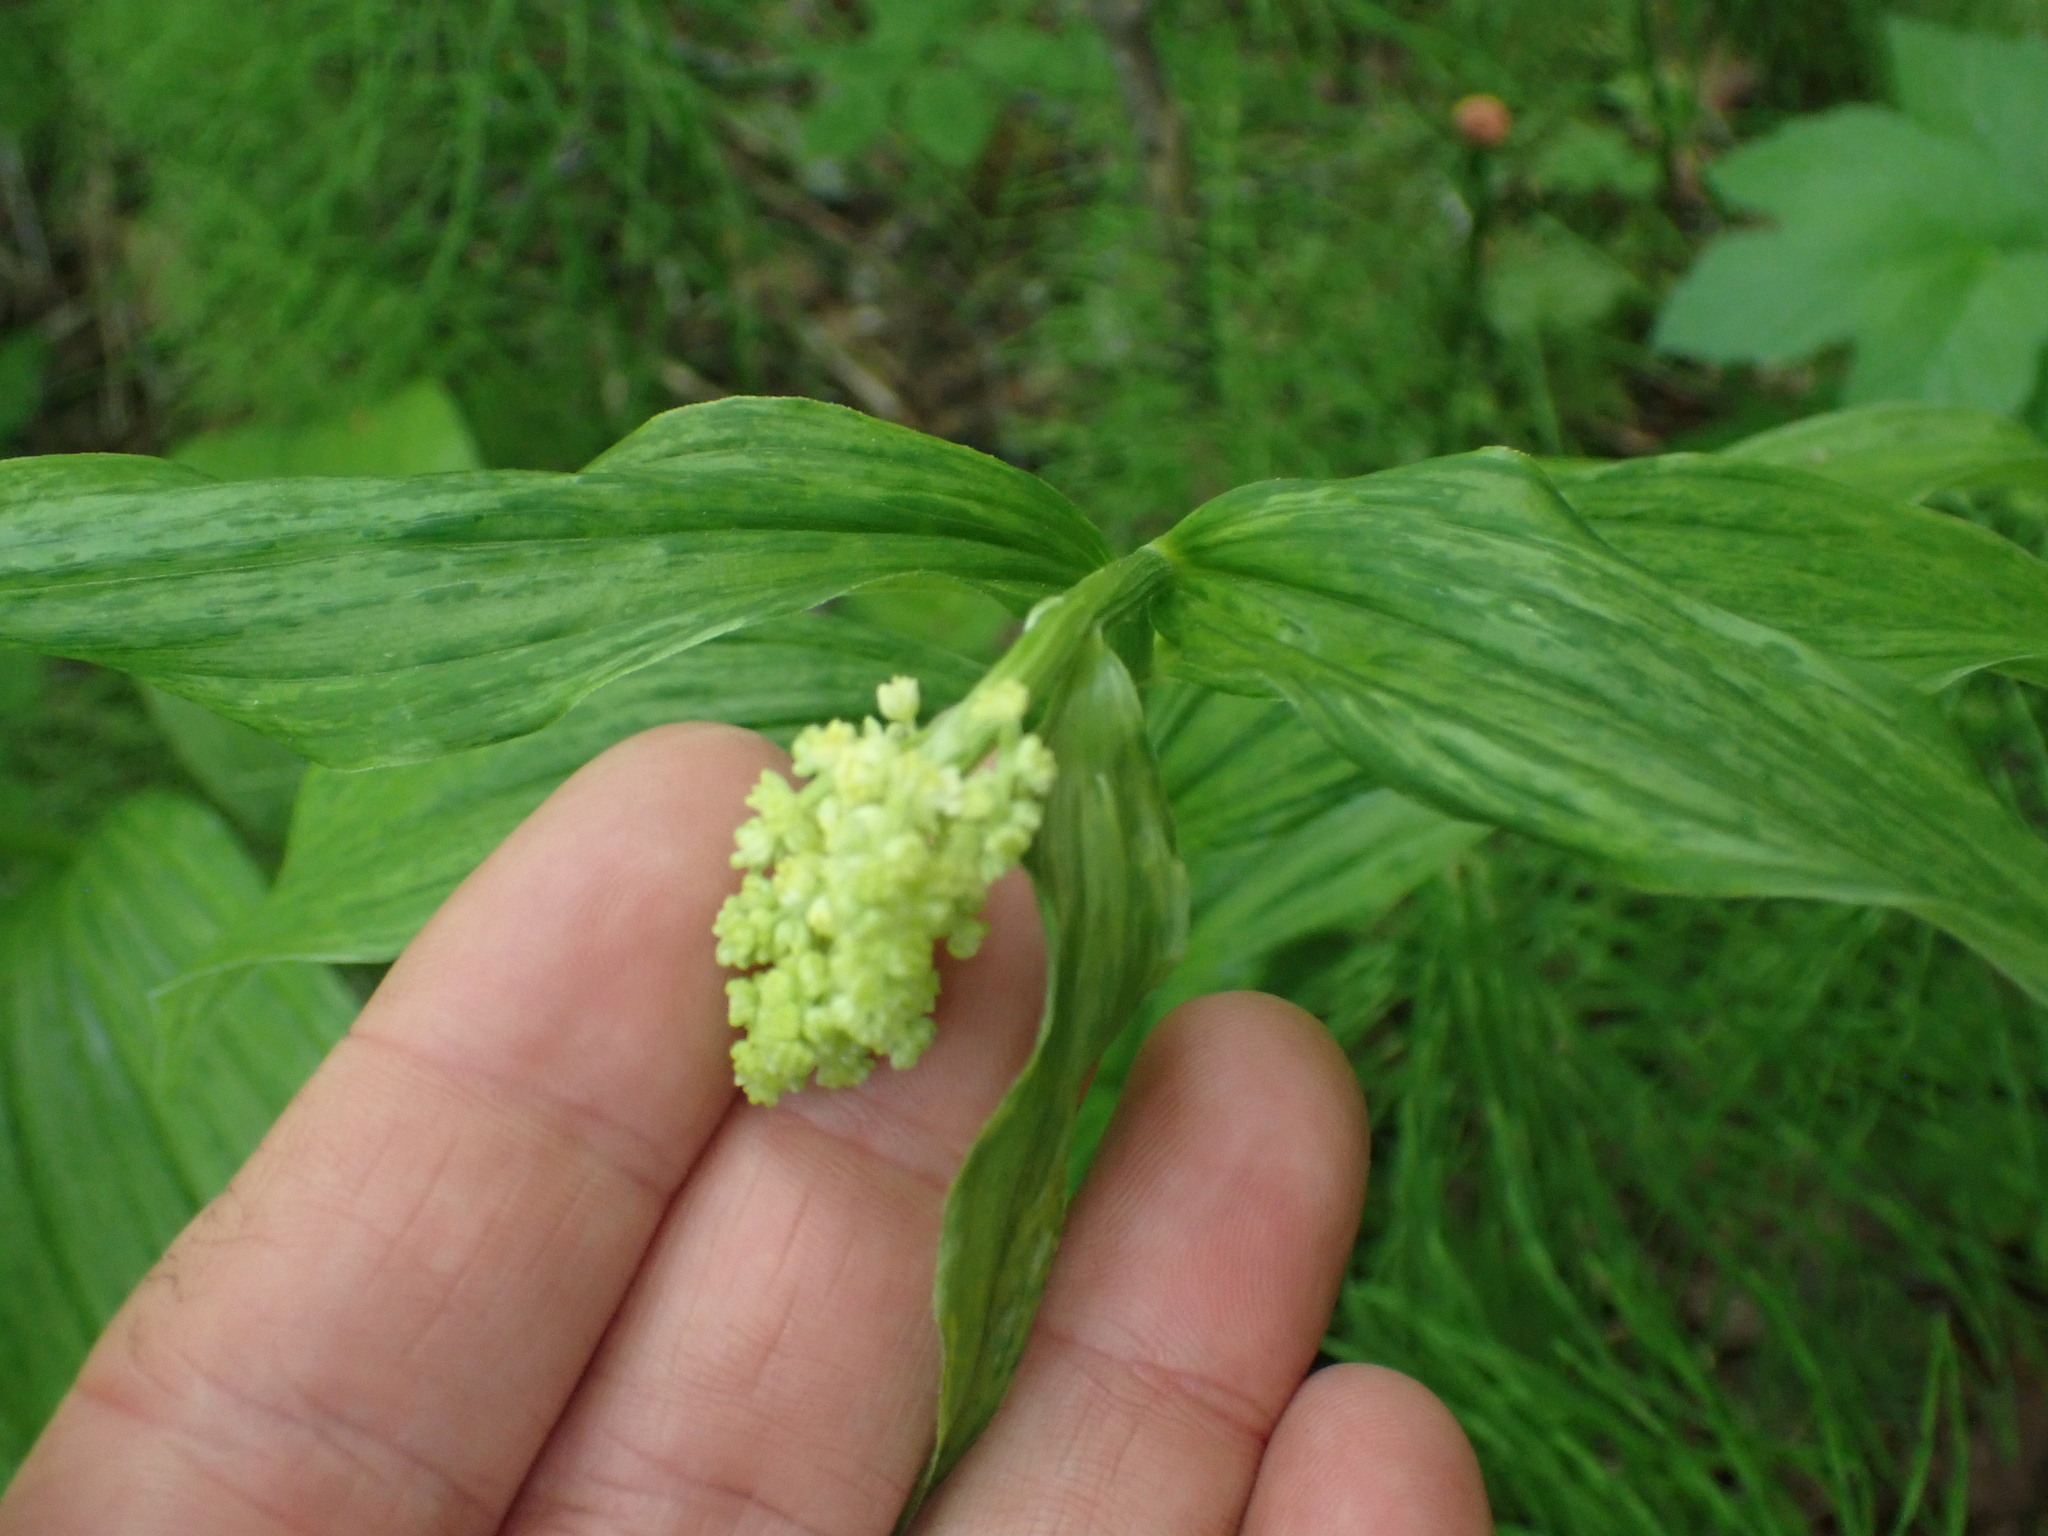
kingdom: Plantae
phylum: Tracheophyta
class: Liliopsida
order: Asparagales
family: Asparagaceae
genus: Maianthemum
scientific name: Maianthemum racemosum
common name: False spikenard
